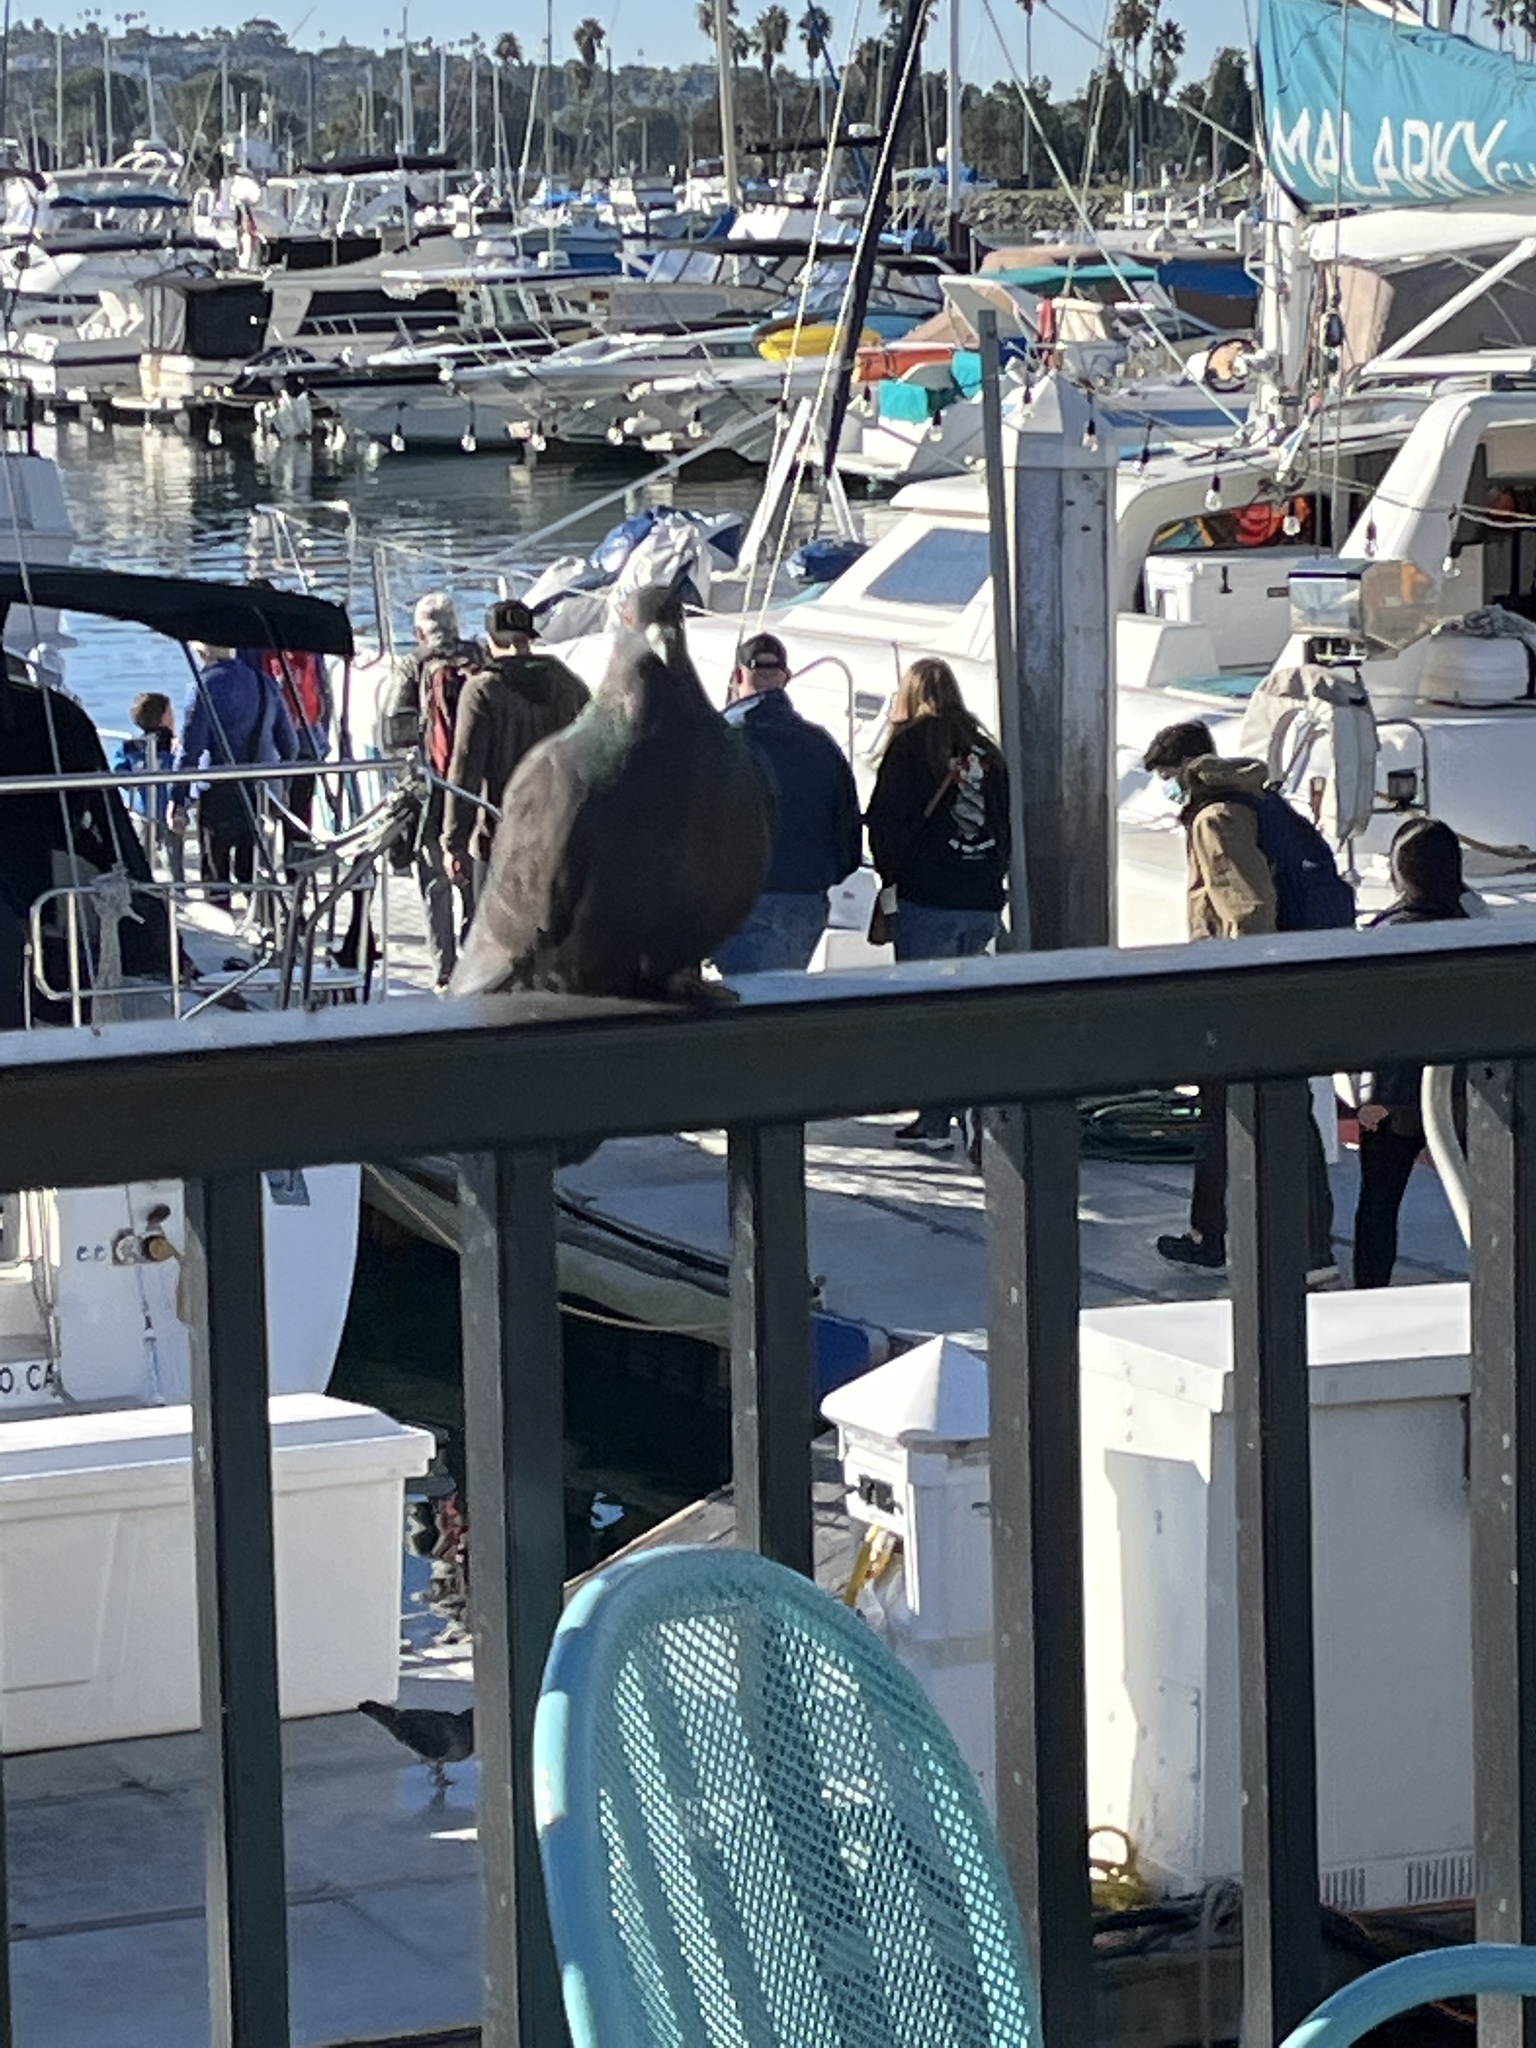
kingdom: Animalia
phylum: Chordata
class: Aves
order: Columbiformes
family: Columbidae
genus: Columba
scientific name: Columba livia
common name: Rock pigeon
